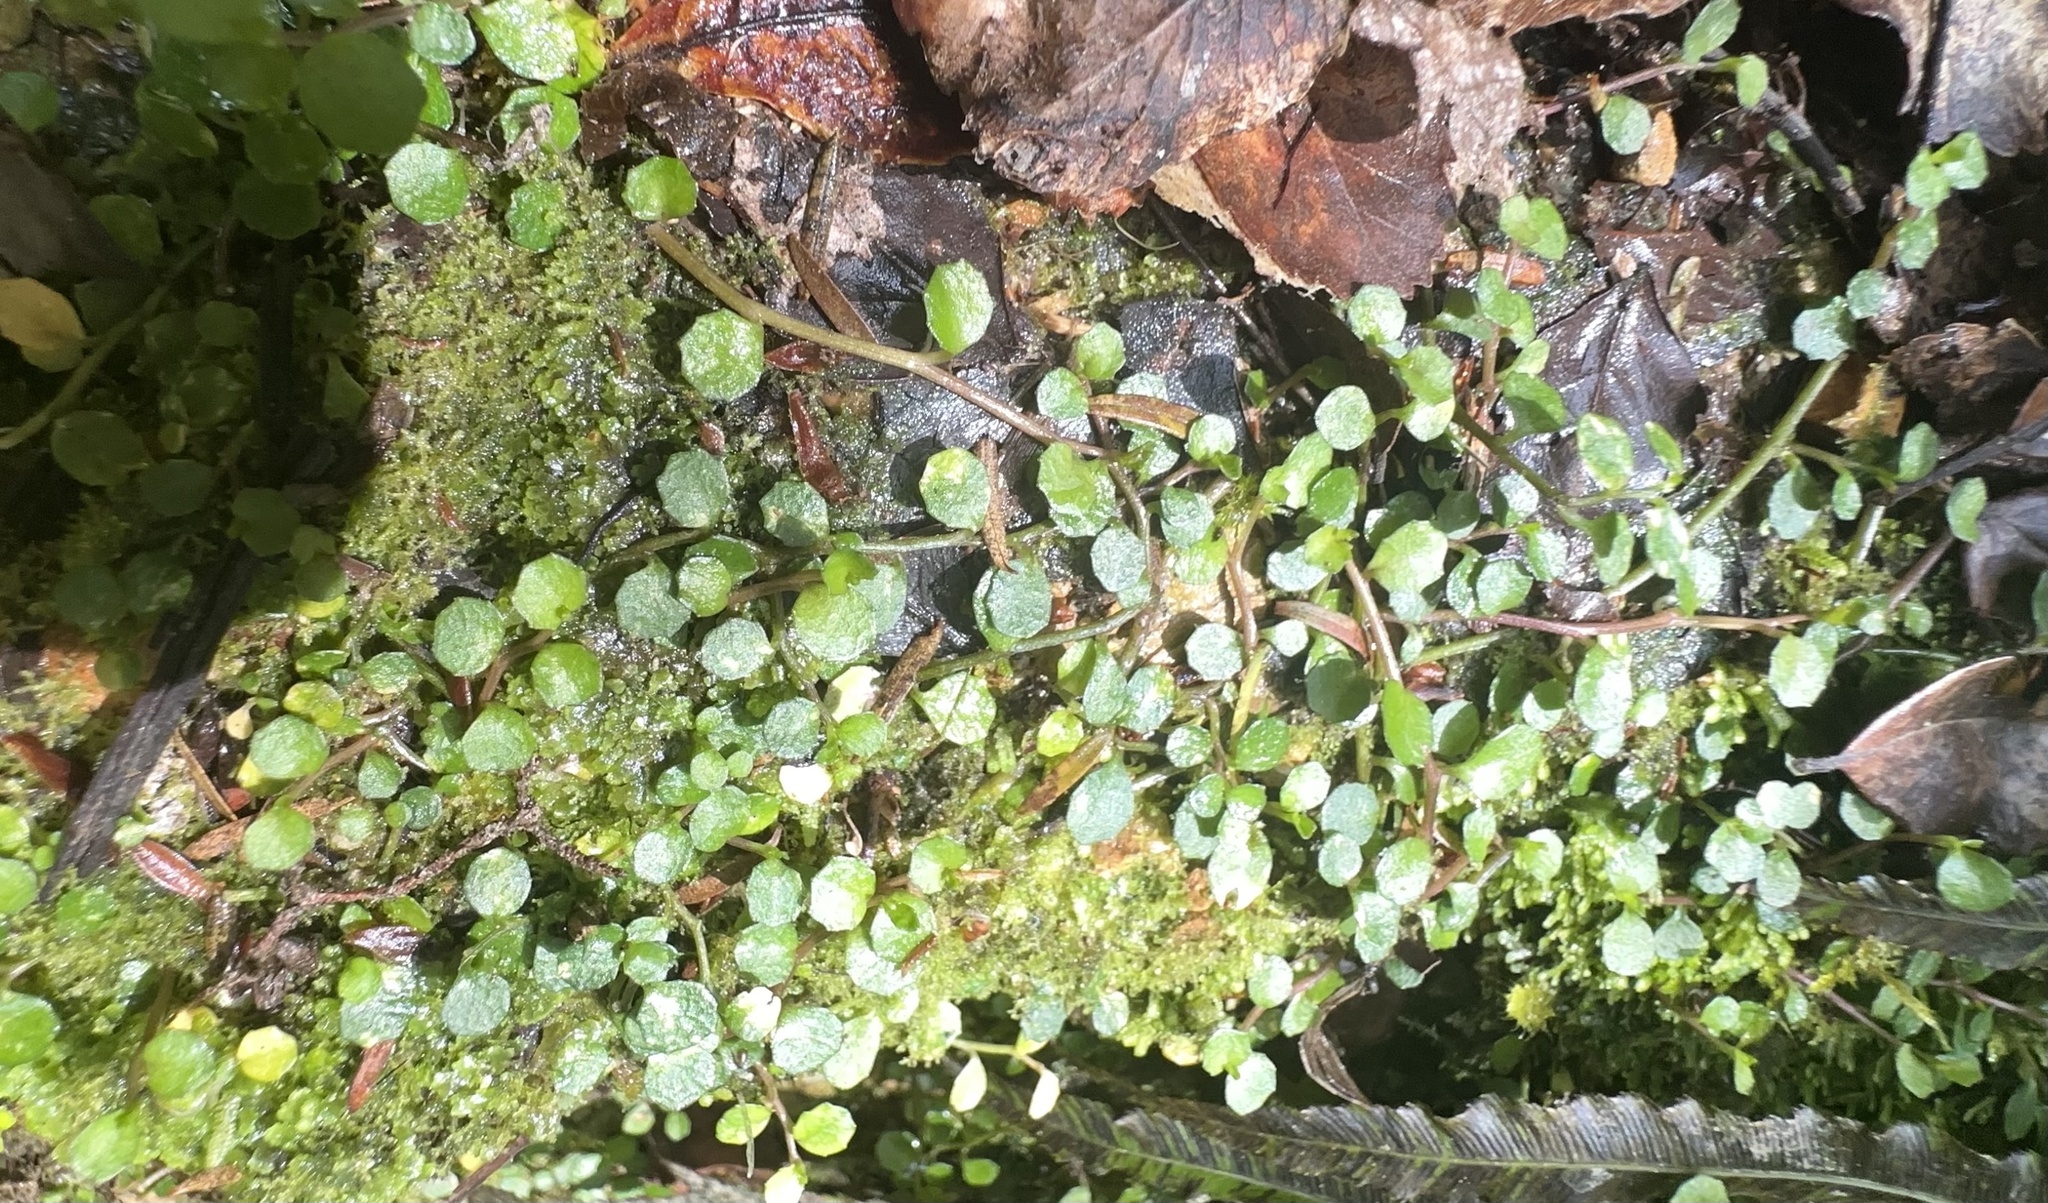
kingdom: Plantae
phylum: Tracheophyta
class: Magnoliopsida
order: Asterales
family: Campanulaceae
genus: Lobelia
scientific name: Lobelia angulata
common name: Lawn lobelia
